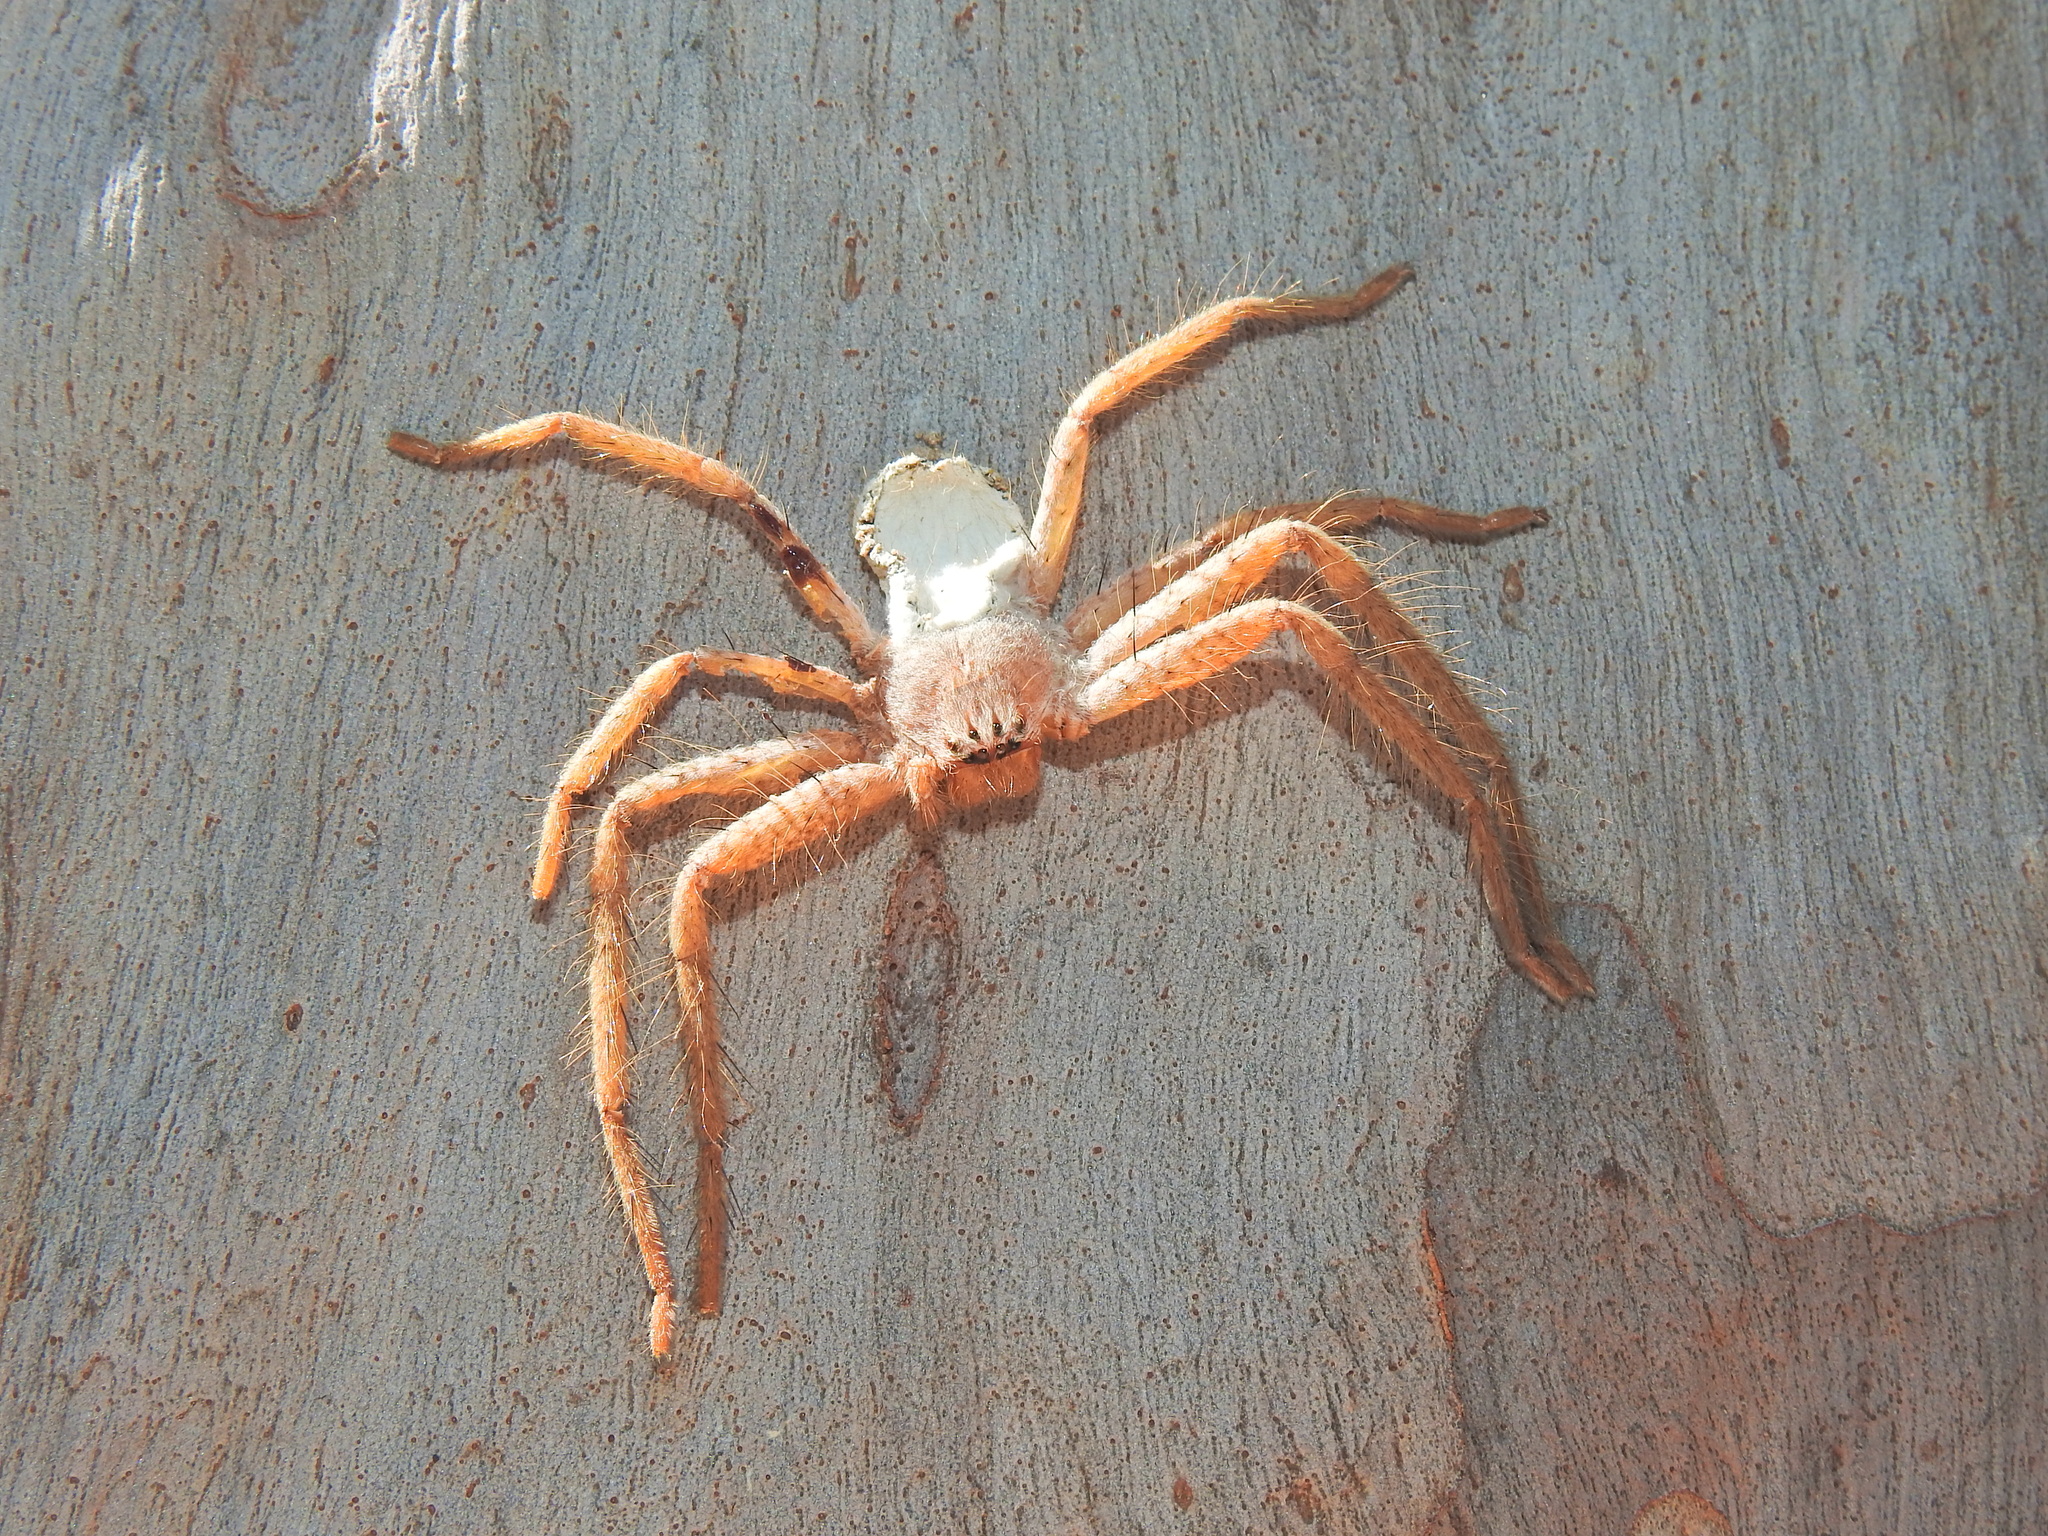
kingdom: Animalia
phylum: Arthropoda
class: Arachnida
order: Araneae
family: Sparassidae
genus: Beregama
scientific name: Beregama aurea
